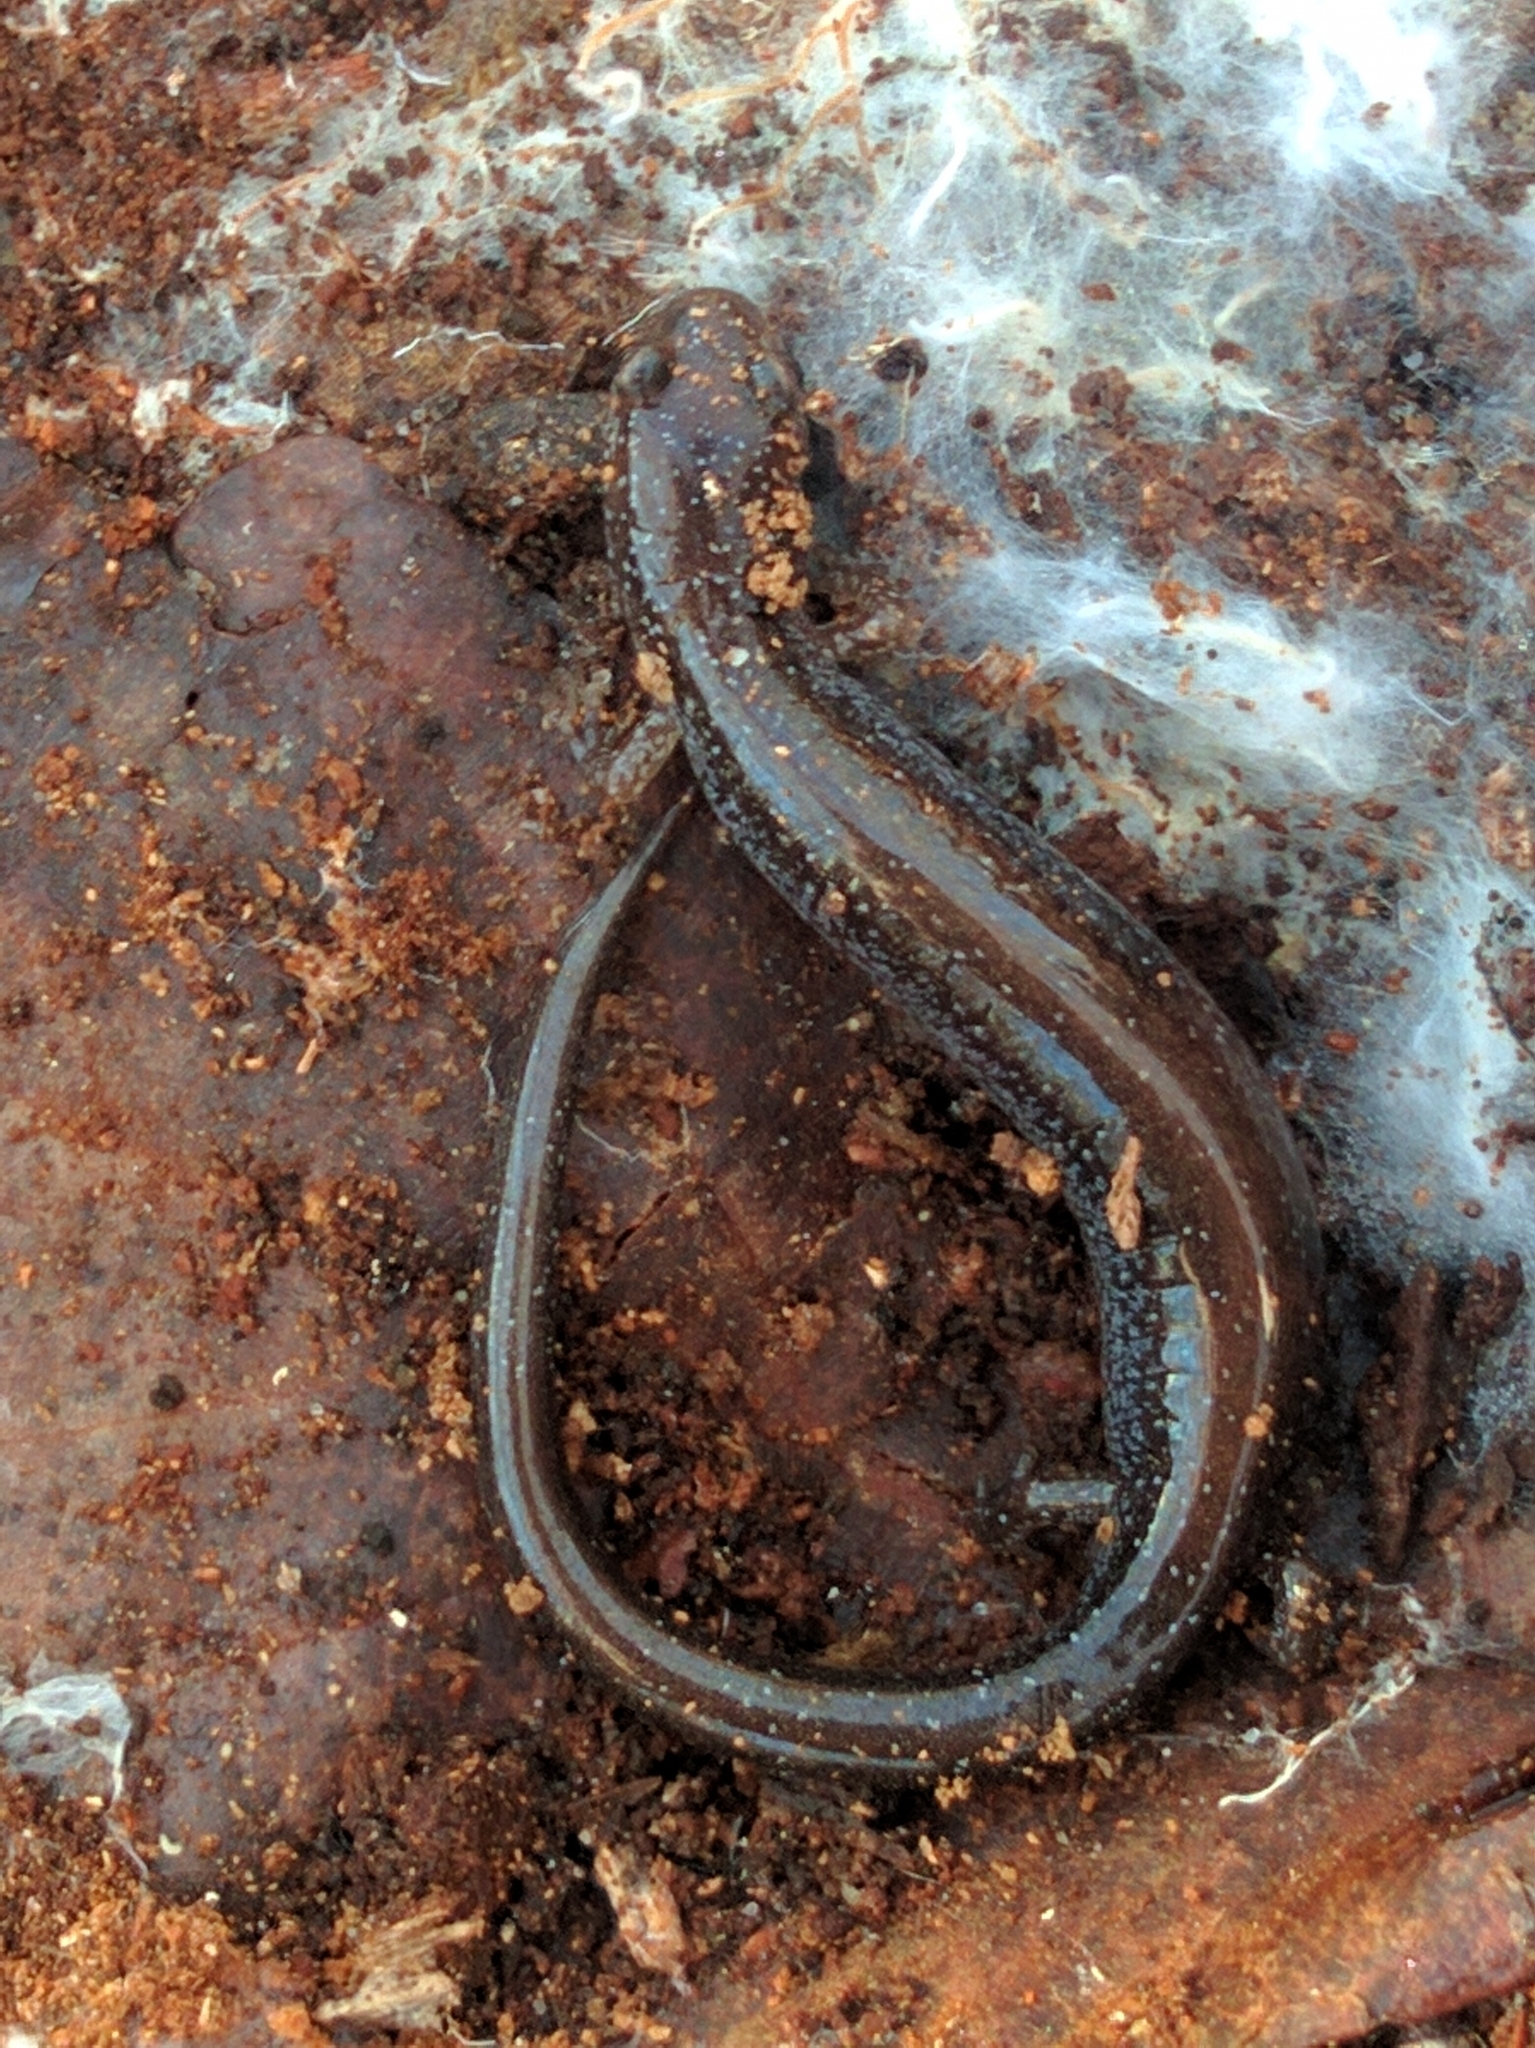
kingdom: Animalia
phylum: Chordata
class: Amphibia
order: Caudata
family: Plethodontidae
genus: Plethodon
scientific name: Plethodon cinereus
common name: Redback salamander
